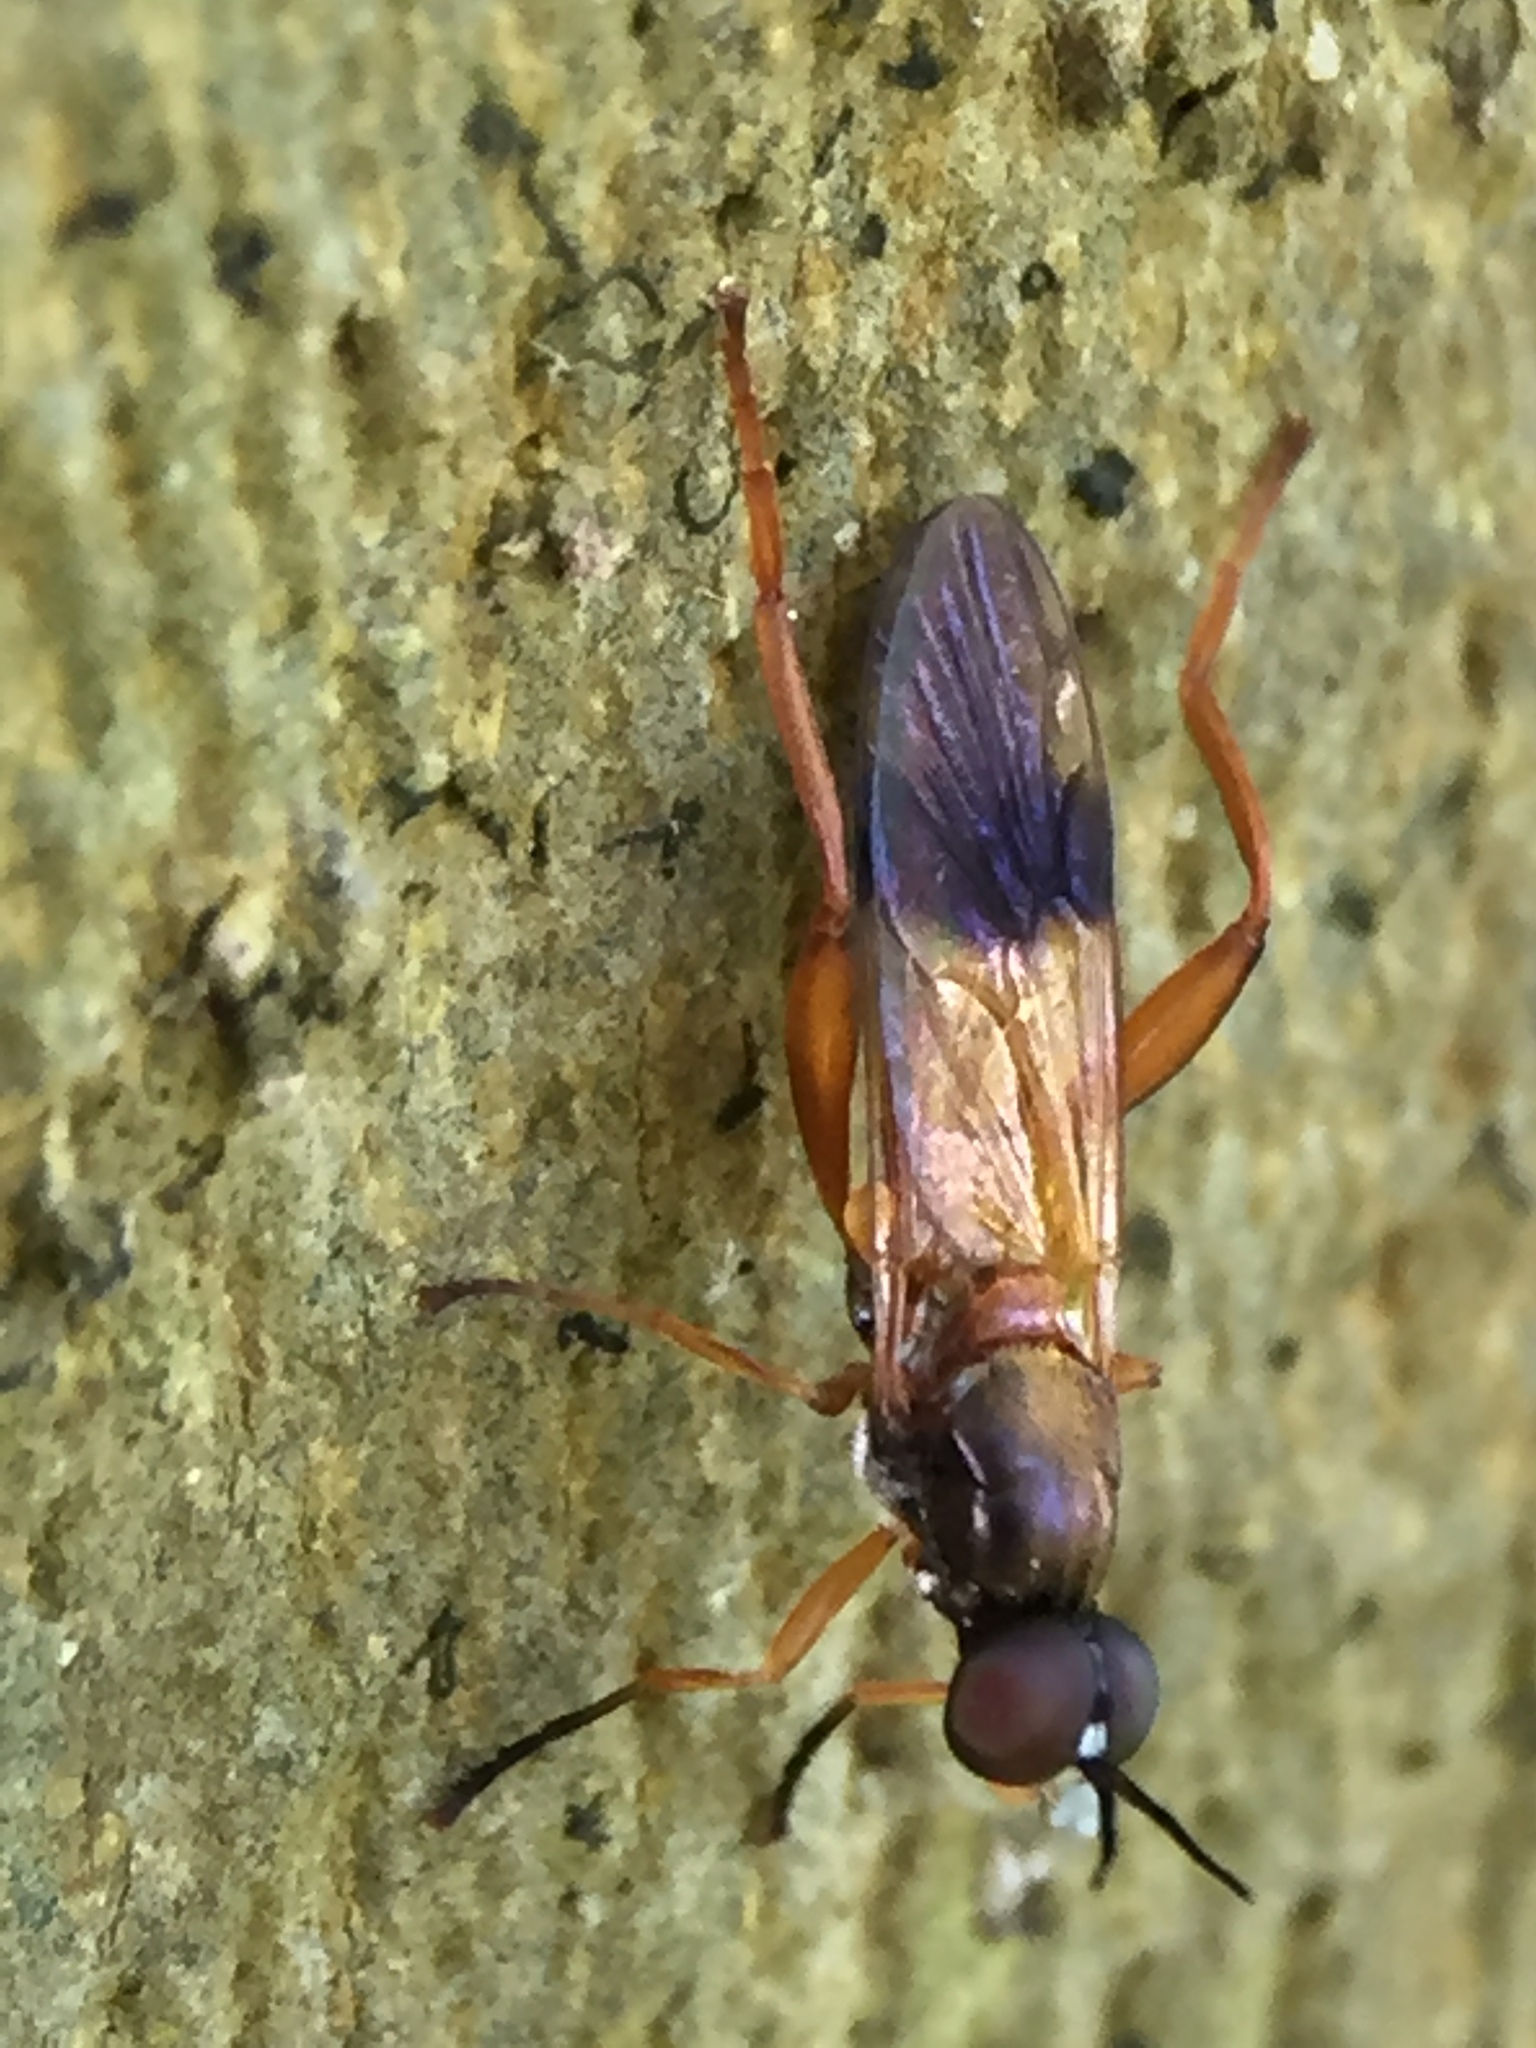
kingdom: Animalia
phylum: Arthropoda
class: Insecta
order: Diptera
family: Stratiomyidae
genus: Benhamyia
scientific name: Benhamyia apicalis
